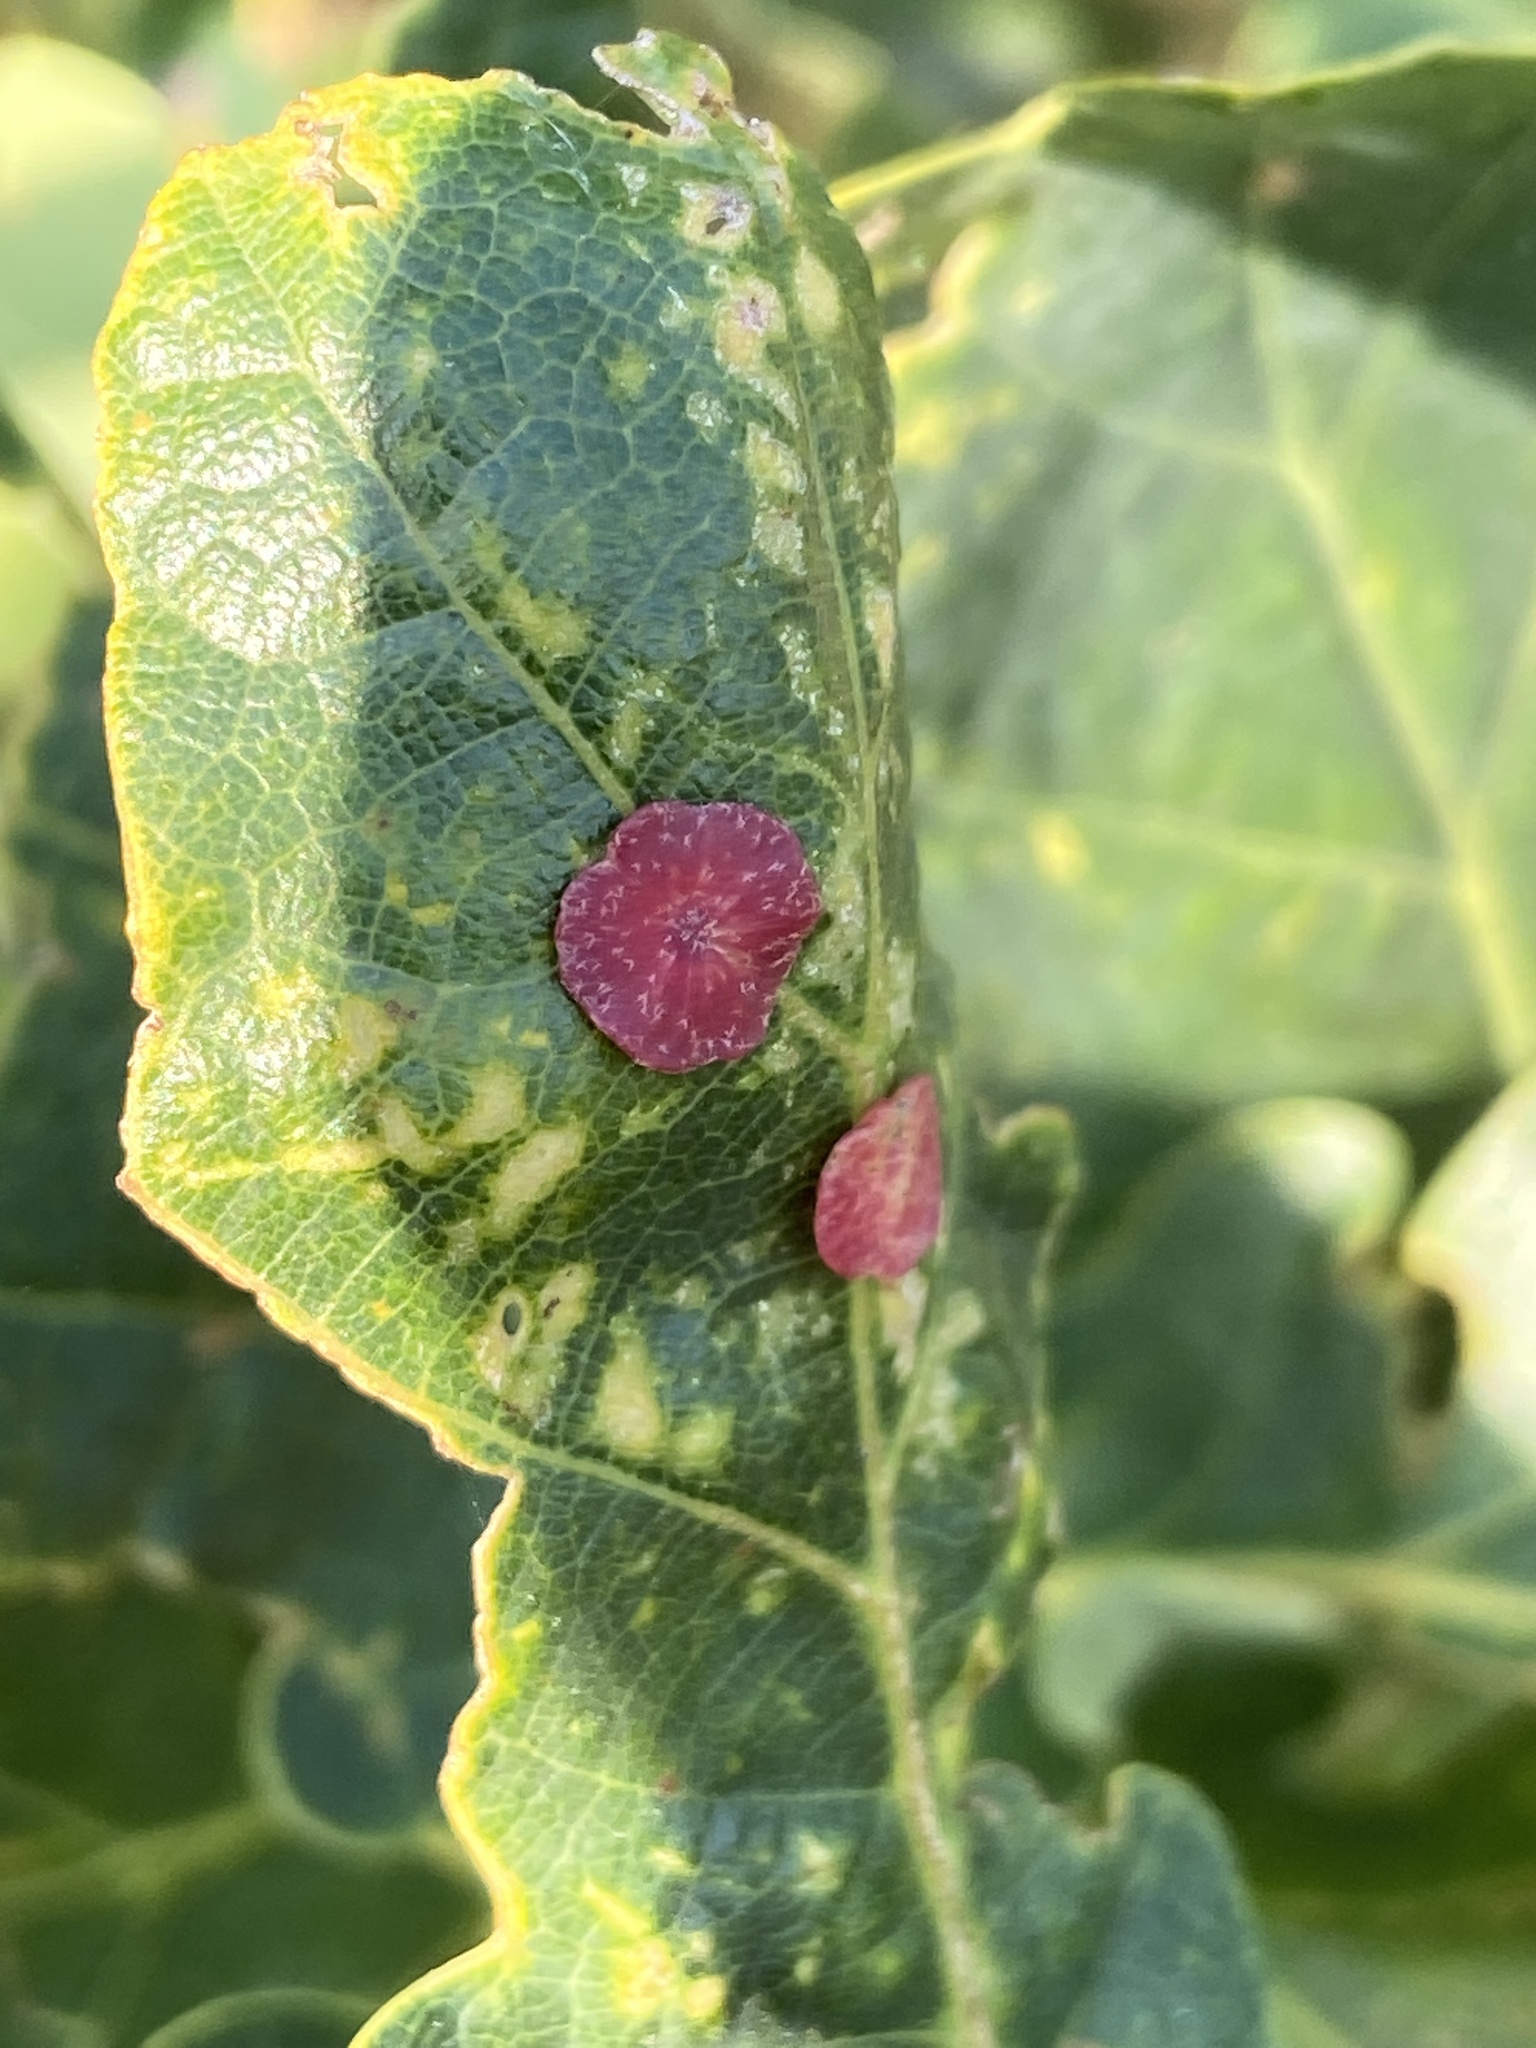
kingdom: Animalia
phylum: Arthropoda
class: Insecta
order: Hymenoptera
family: Cynipidae
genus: Neuroterus
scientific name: Neuroterus albipes
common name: Smooth spangle gall
